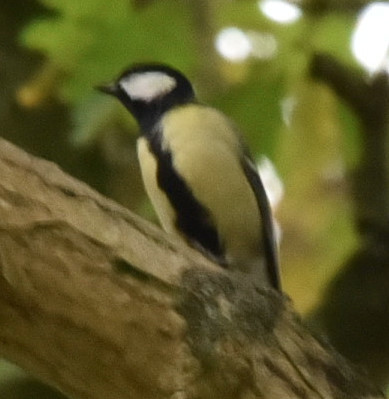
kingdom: Animalia
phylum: Chordata
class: Aves
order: Passeriformes
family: Paridae
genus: Parus
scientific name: Parus major
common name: Great tit
